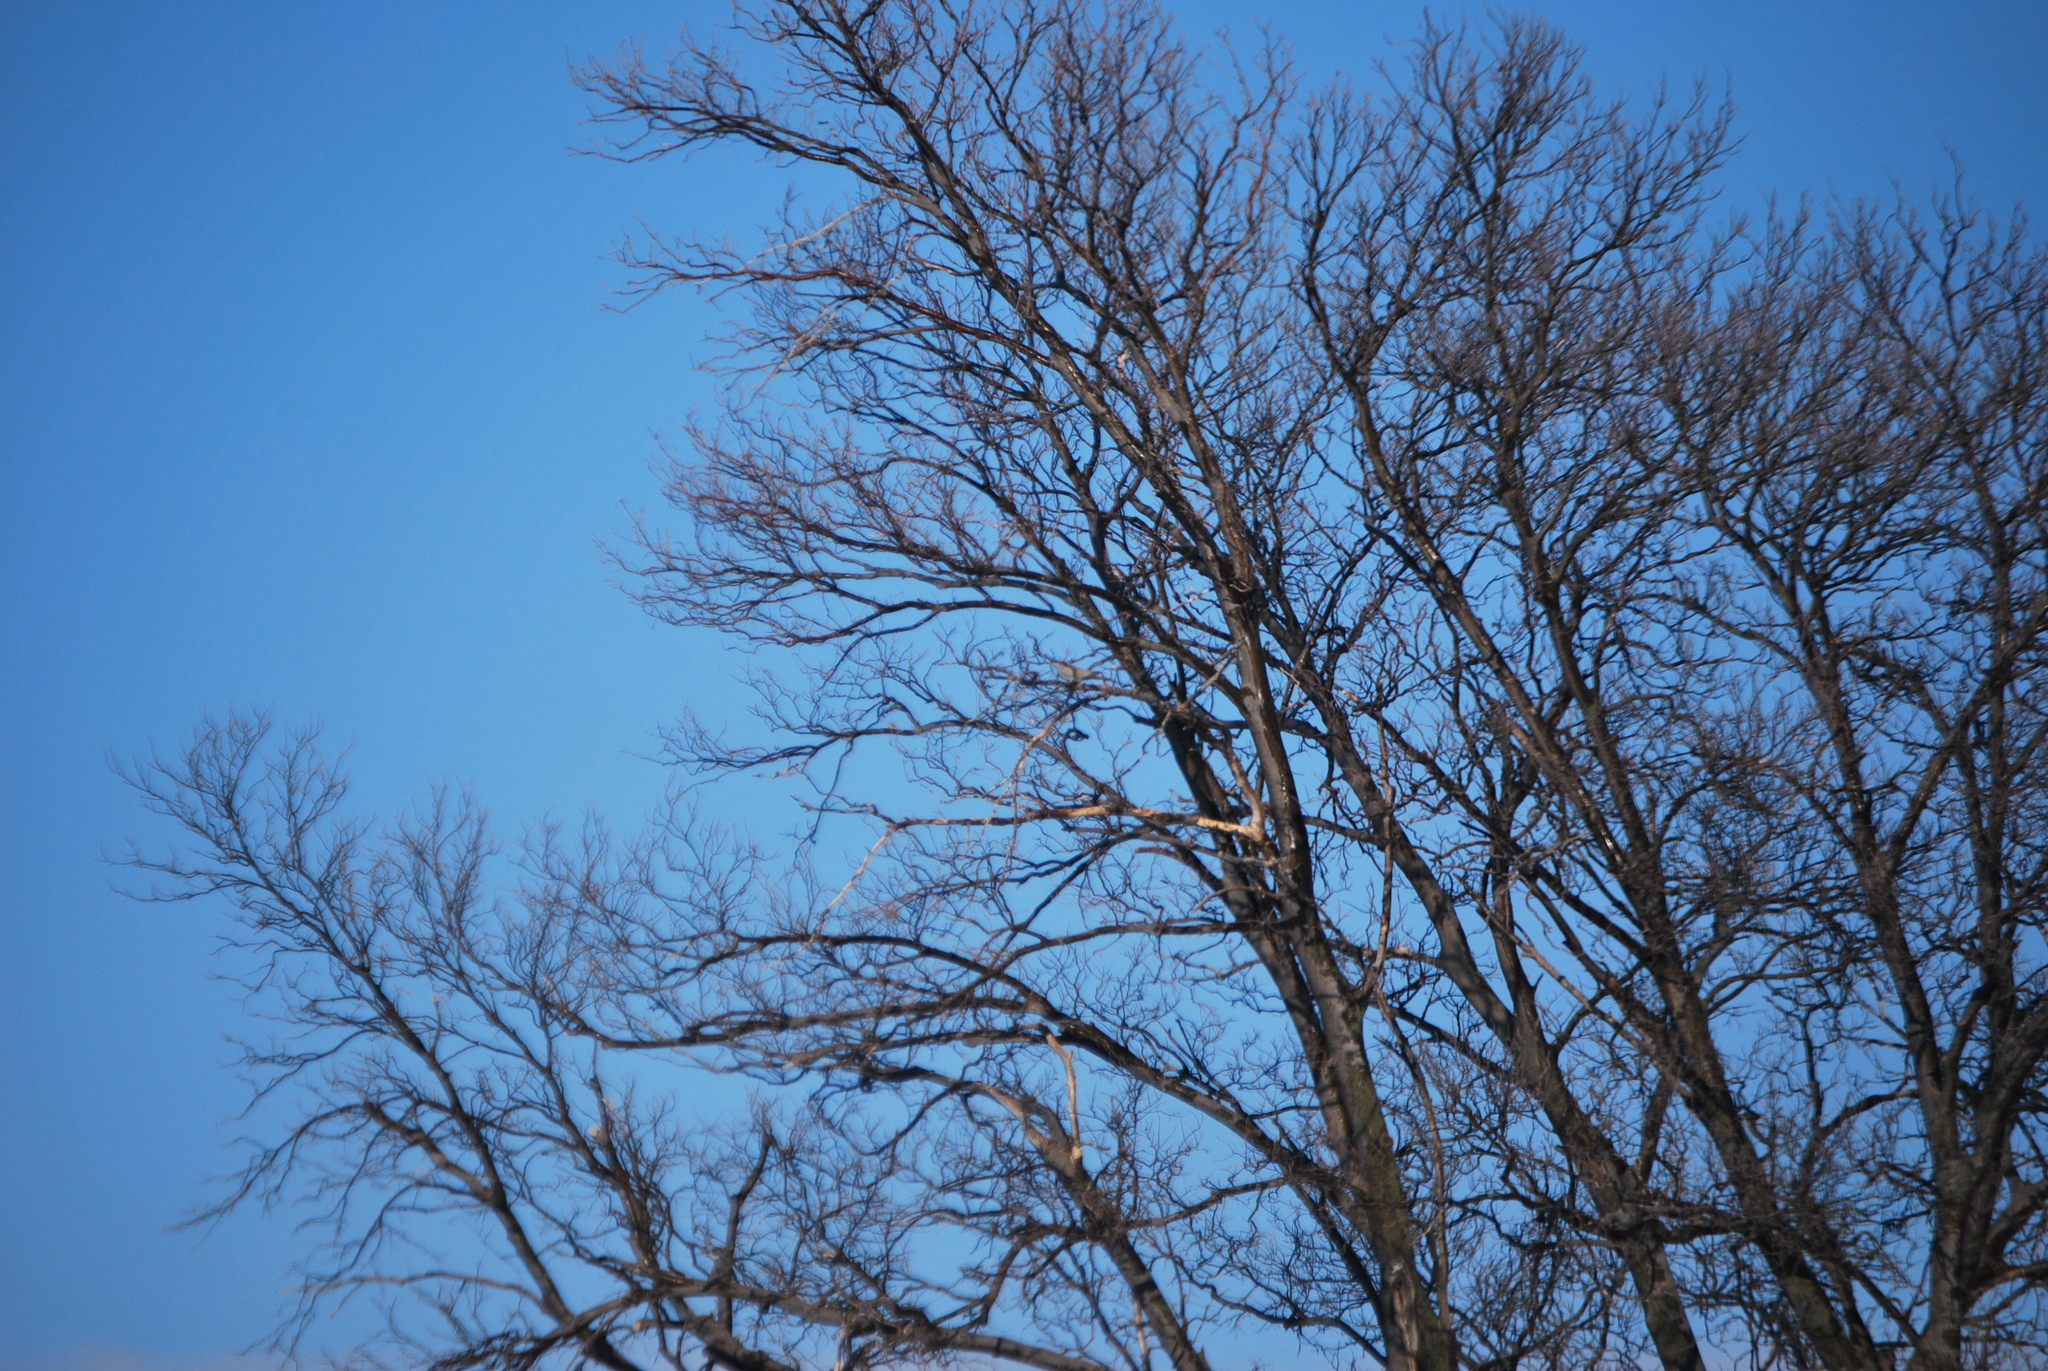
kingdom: Animalia
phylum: Chordata
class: Aves
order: Columbiformes
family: Columbidae
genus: Zenaida
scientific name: Zenaida macroura
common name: Mourning dove
